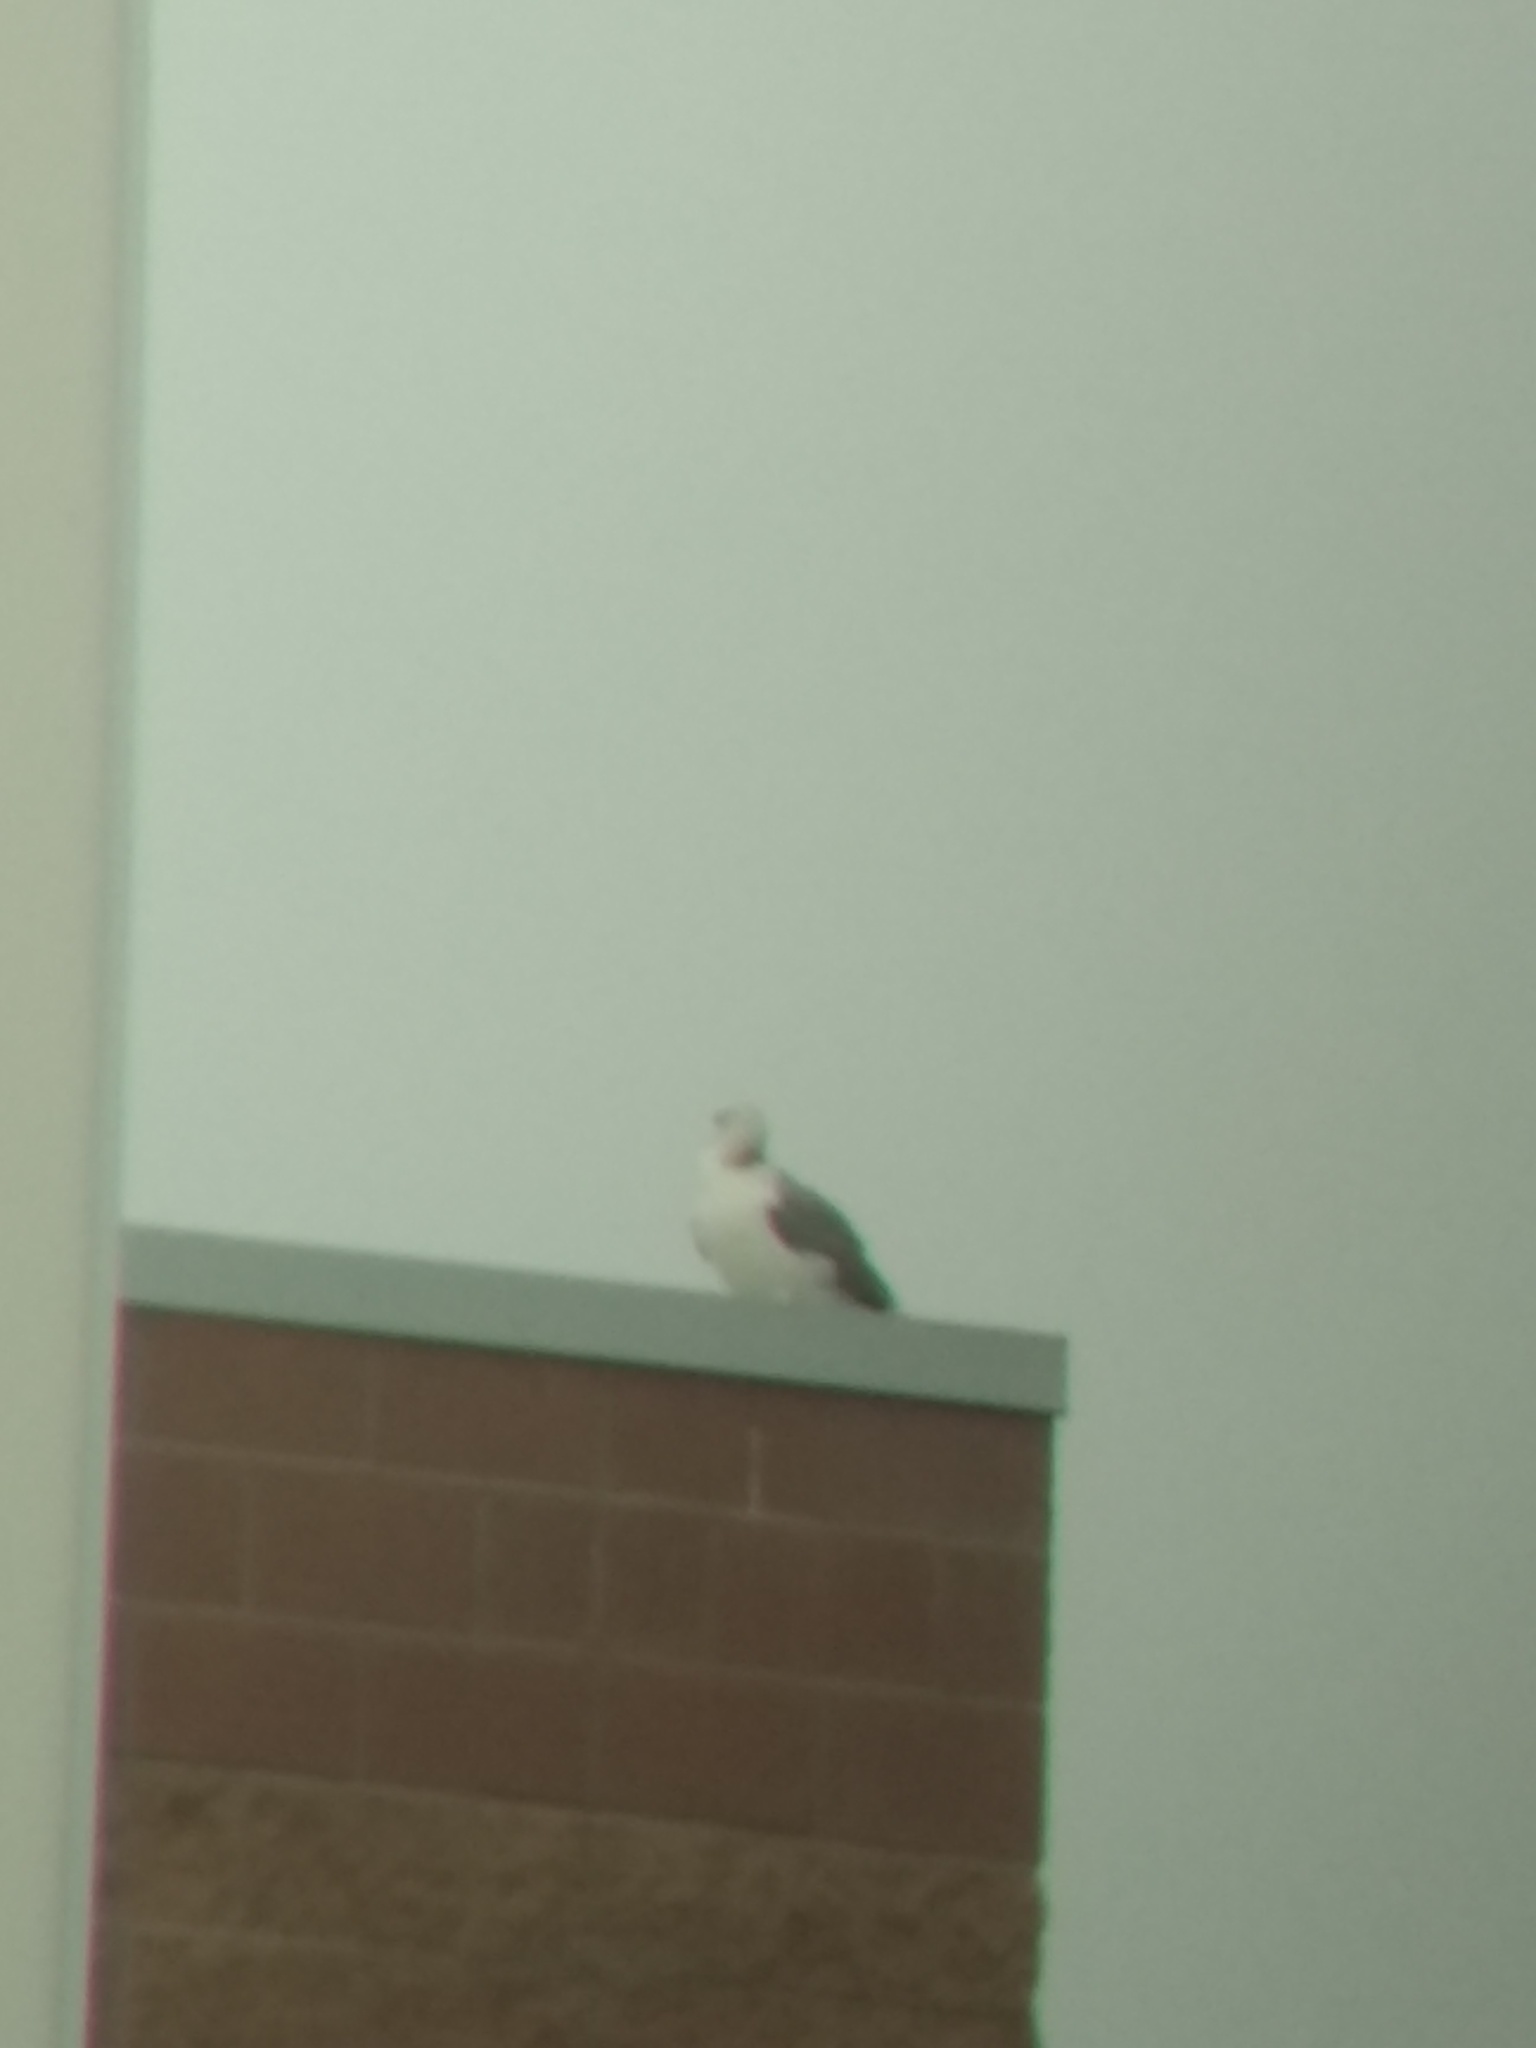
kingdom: Animalia
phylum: Chordata
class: Aves
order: Charadriiformes
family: Laridae
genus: Larus
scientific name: Larus californicus
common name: California gull
